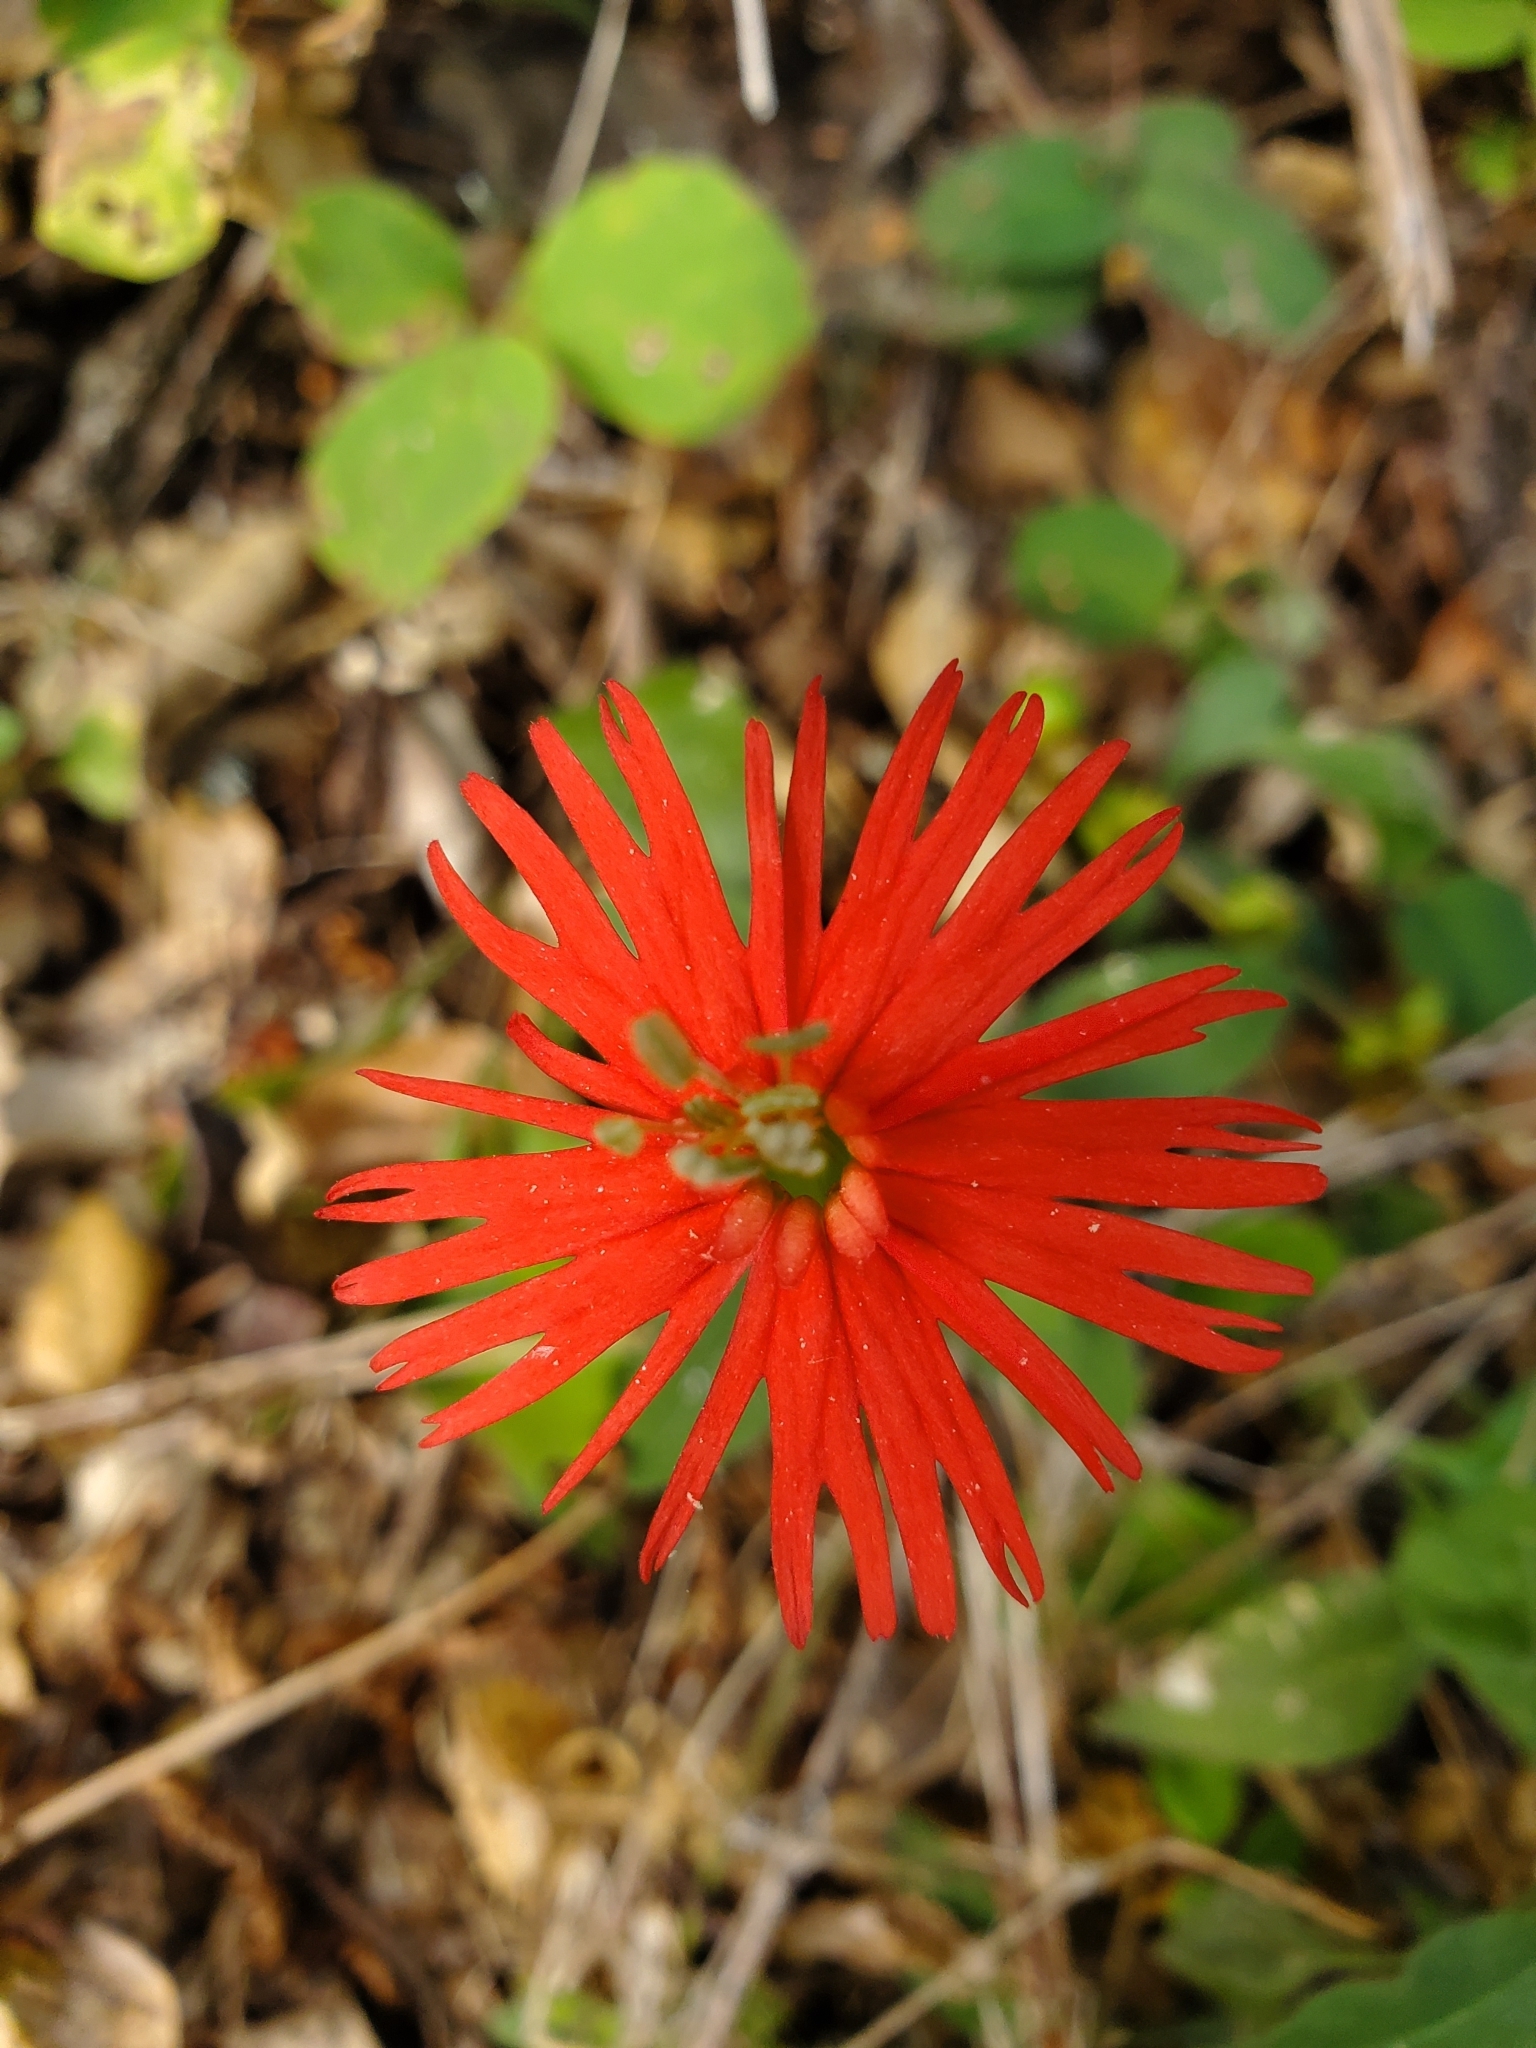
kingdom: Plantae
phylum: Tracheophyta
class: Magnoliopsida
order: Caryophyllales
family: Caryophyllaceae
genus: Silene
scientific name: Silene laciniata
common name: Indian-pink
